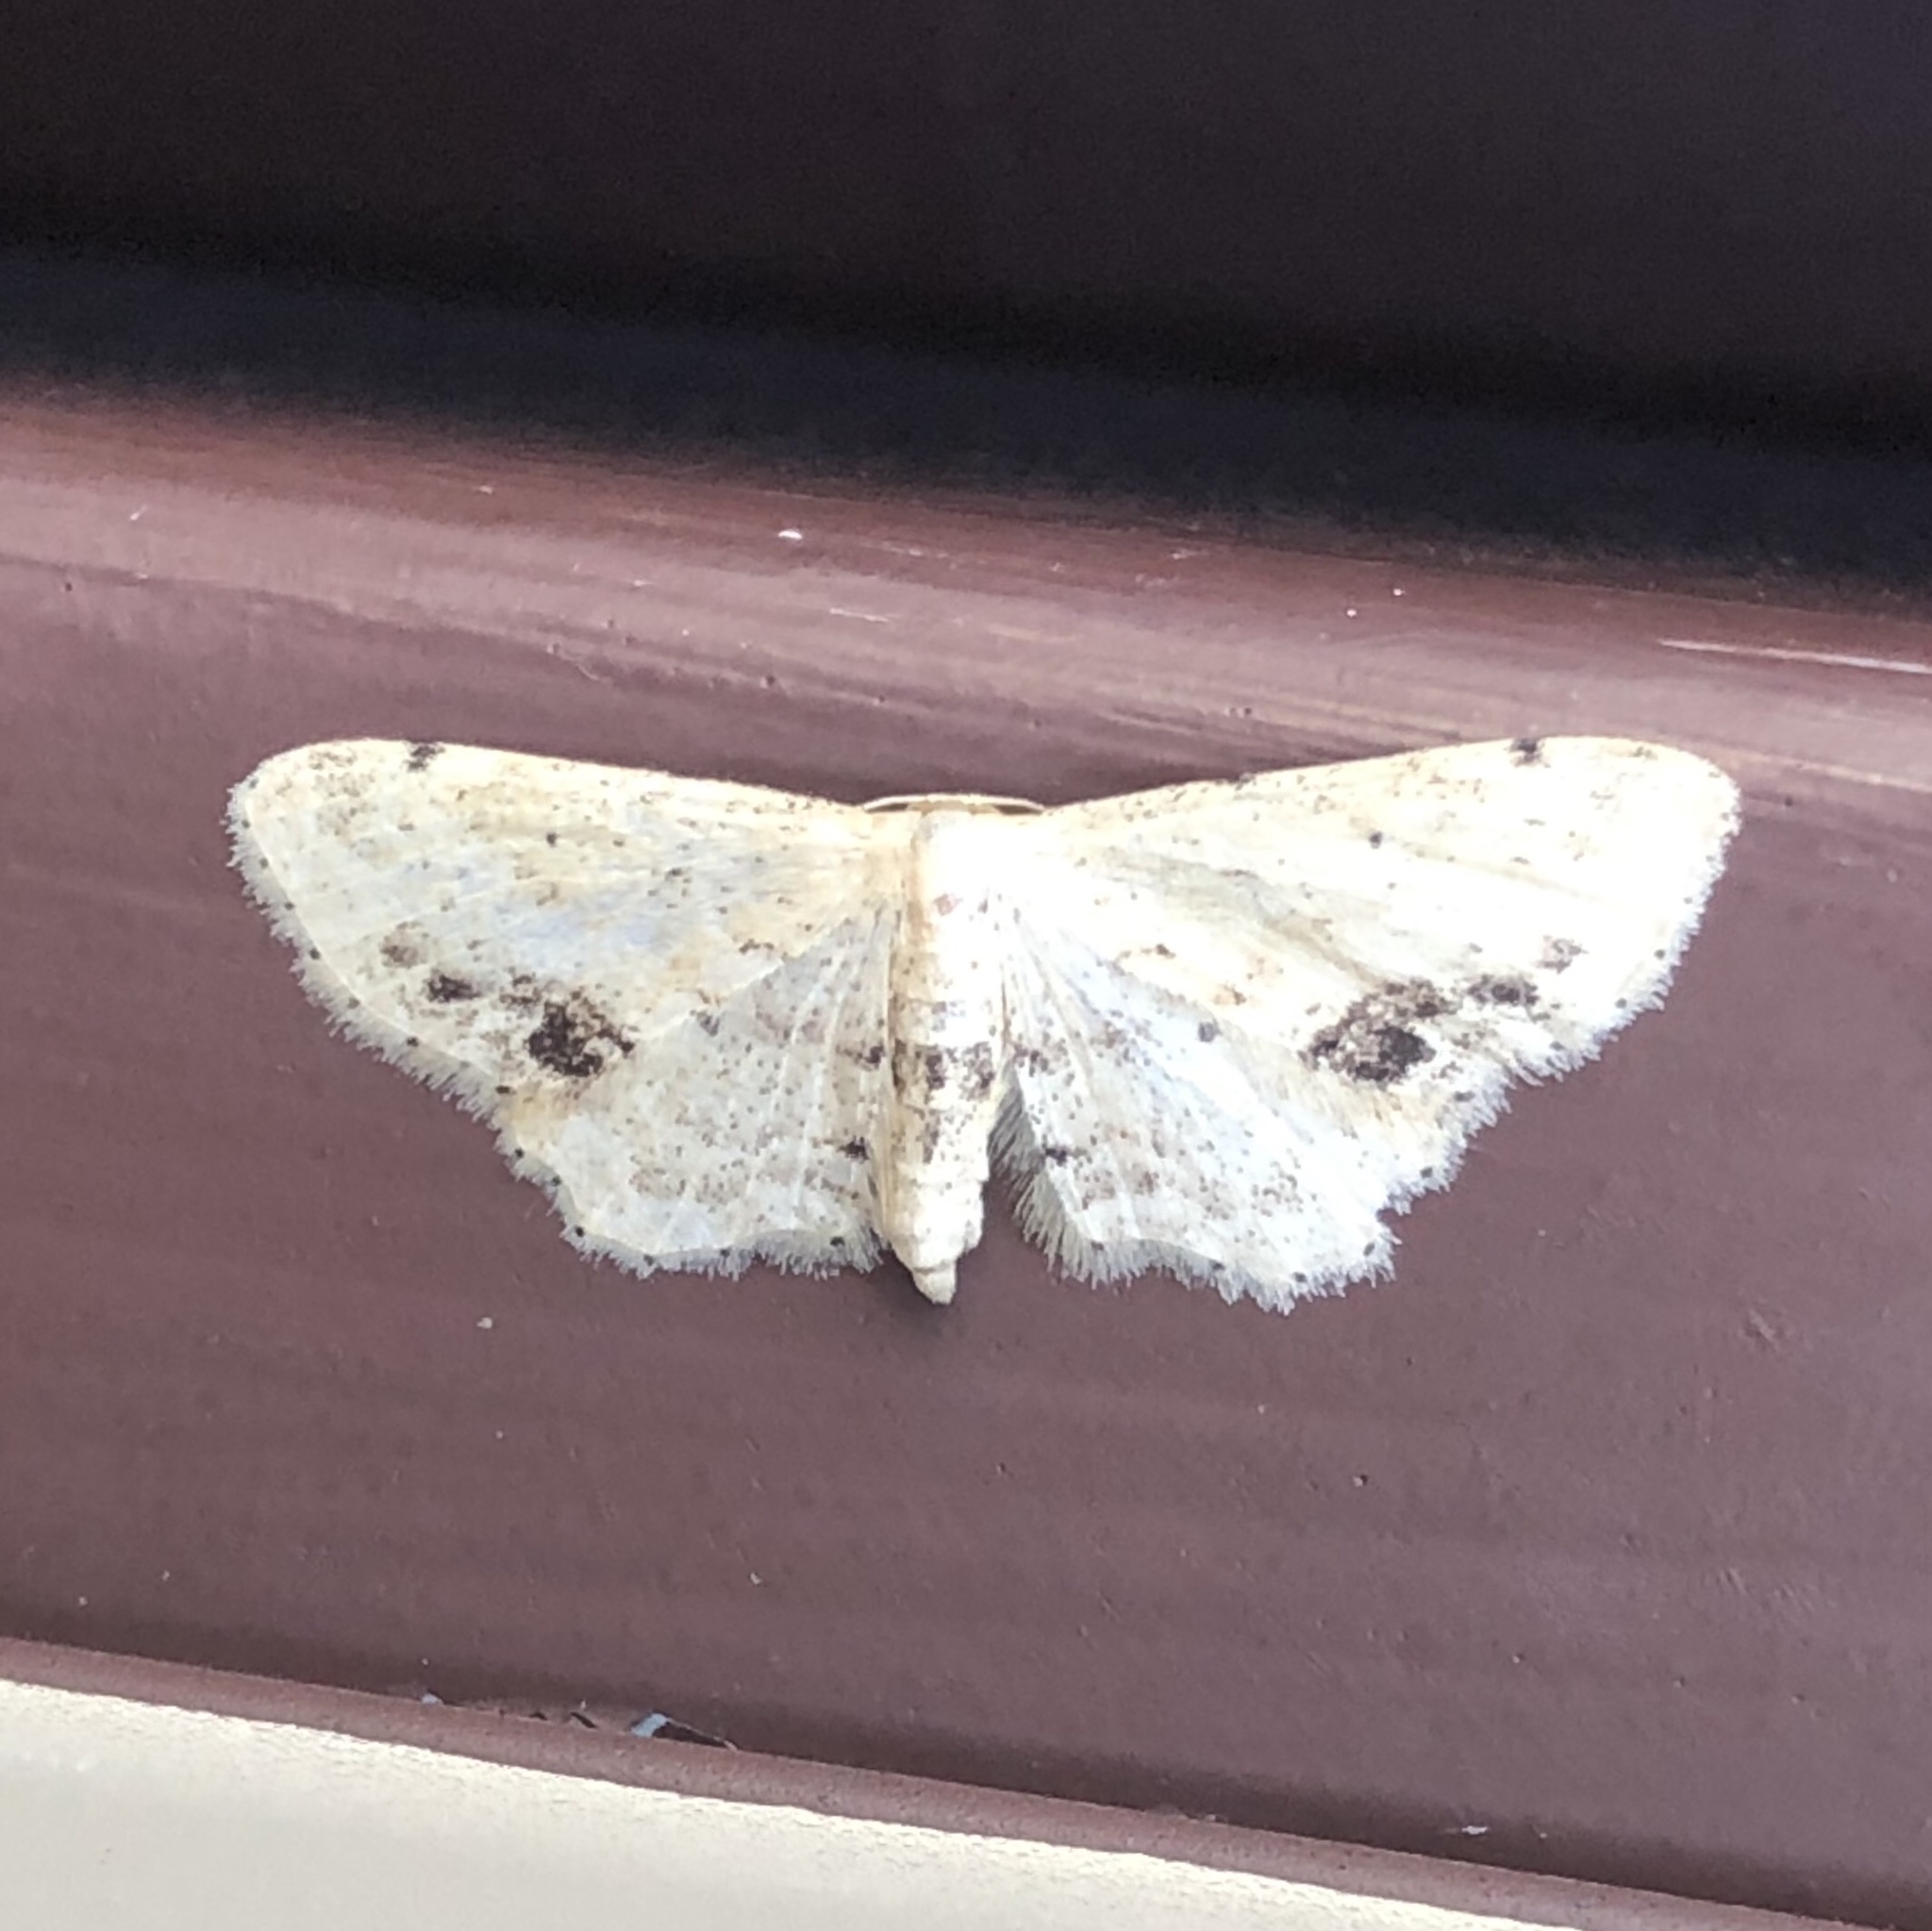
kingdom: Animalia
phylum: Arthropoda
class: Insecta
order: Lepidoptera
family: Geometridae
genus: Idaea
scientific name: Idaea dimidiata
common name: Single-dotted wave
